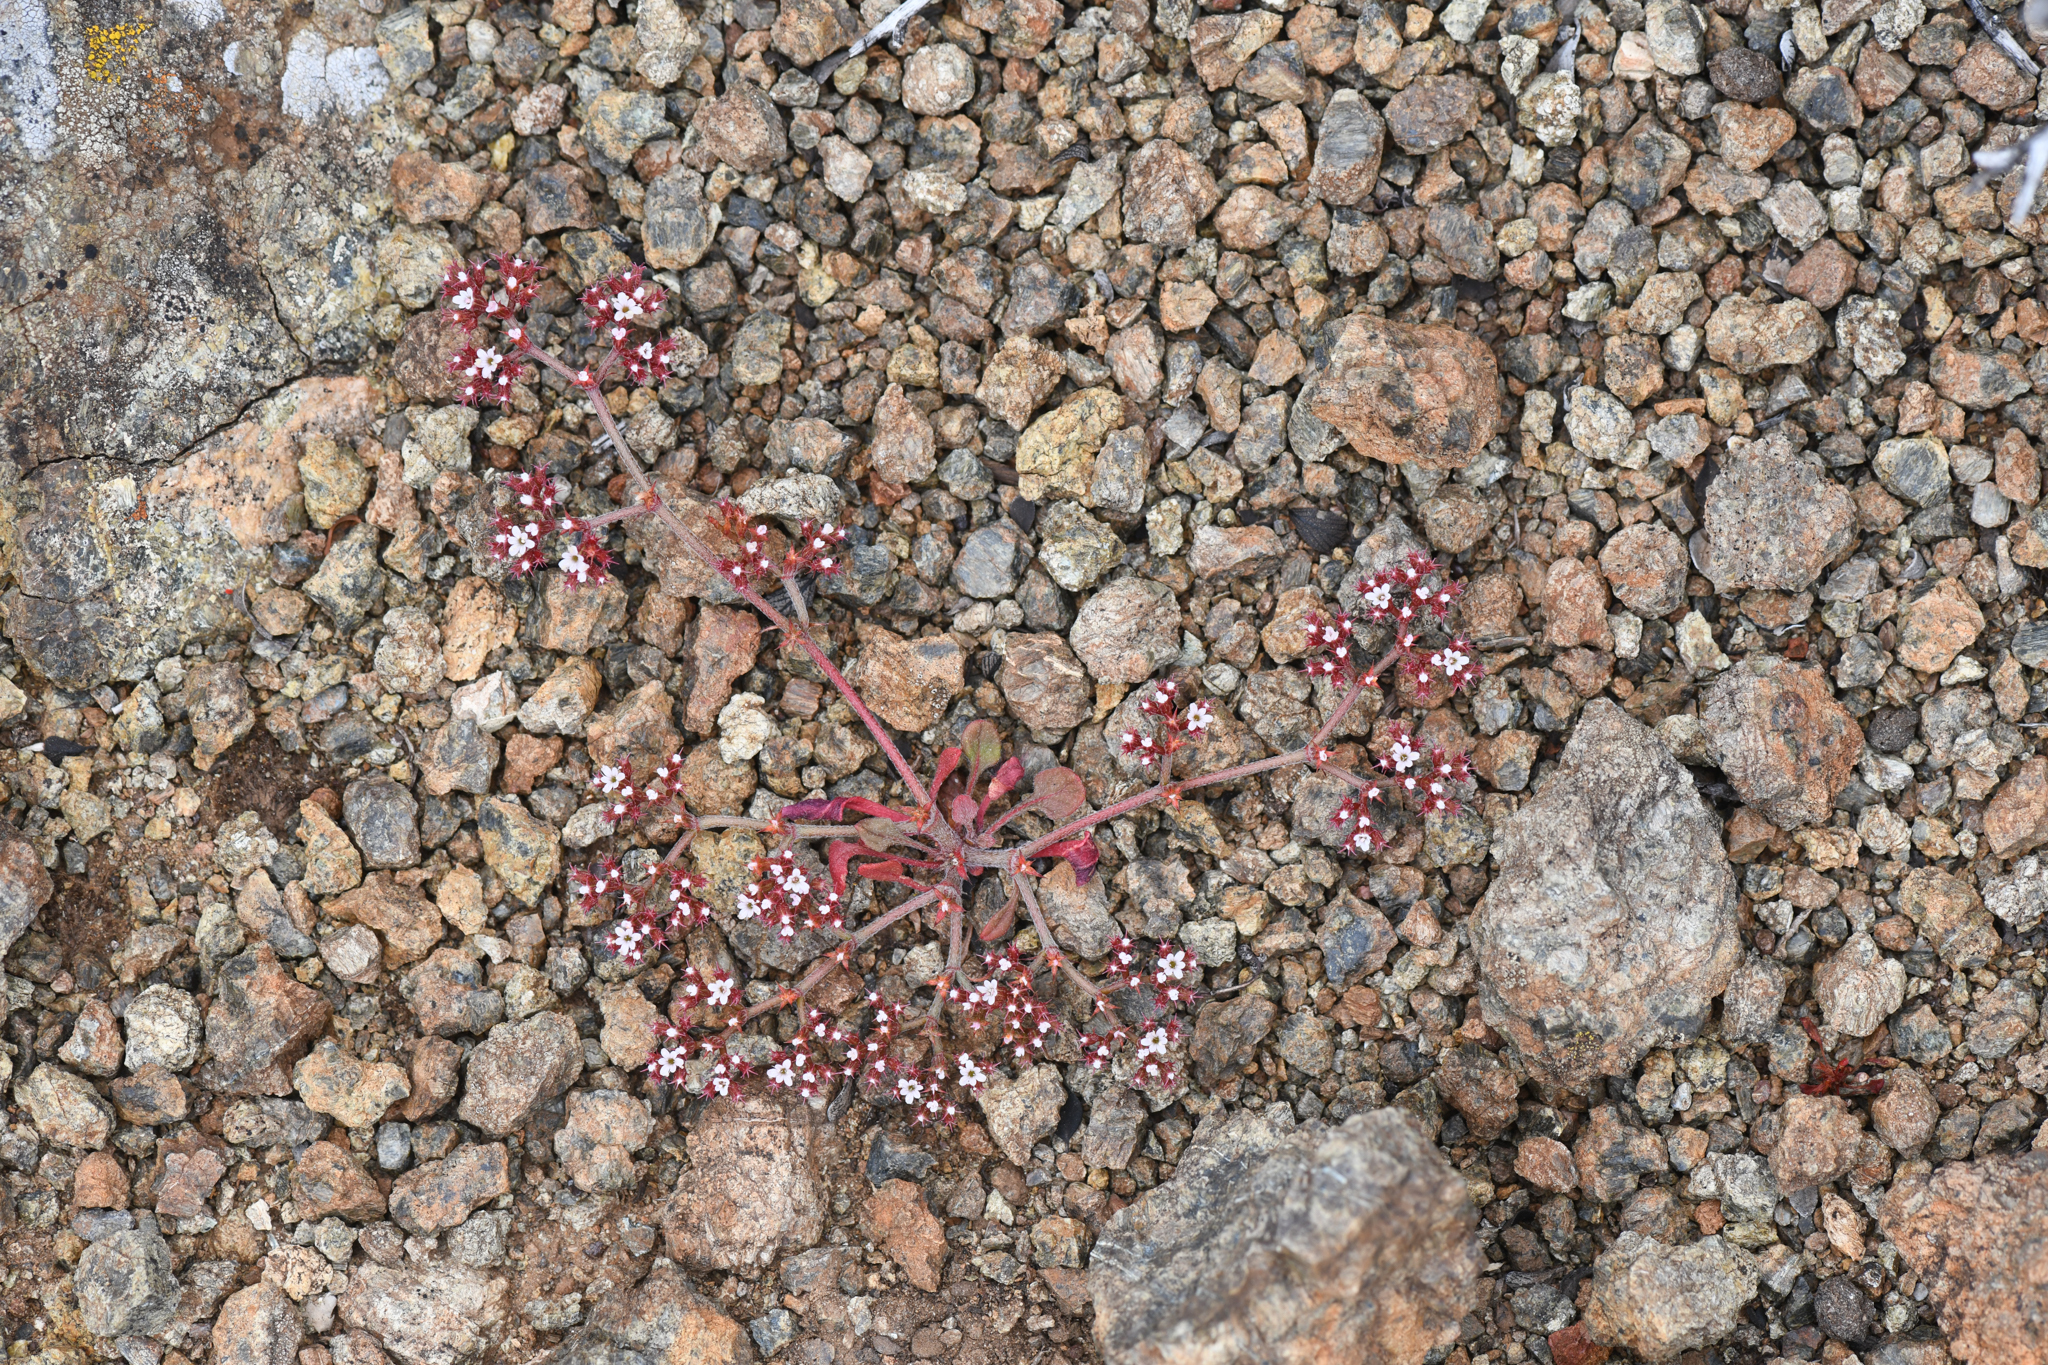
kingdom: Plantae
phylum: Tracheophyta
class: Magnoliopsida
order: Caryophyllales
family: Polygonaceae
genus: Chorizanthe
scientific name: Chorizanthe breweri
